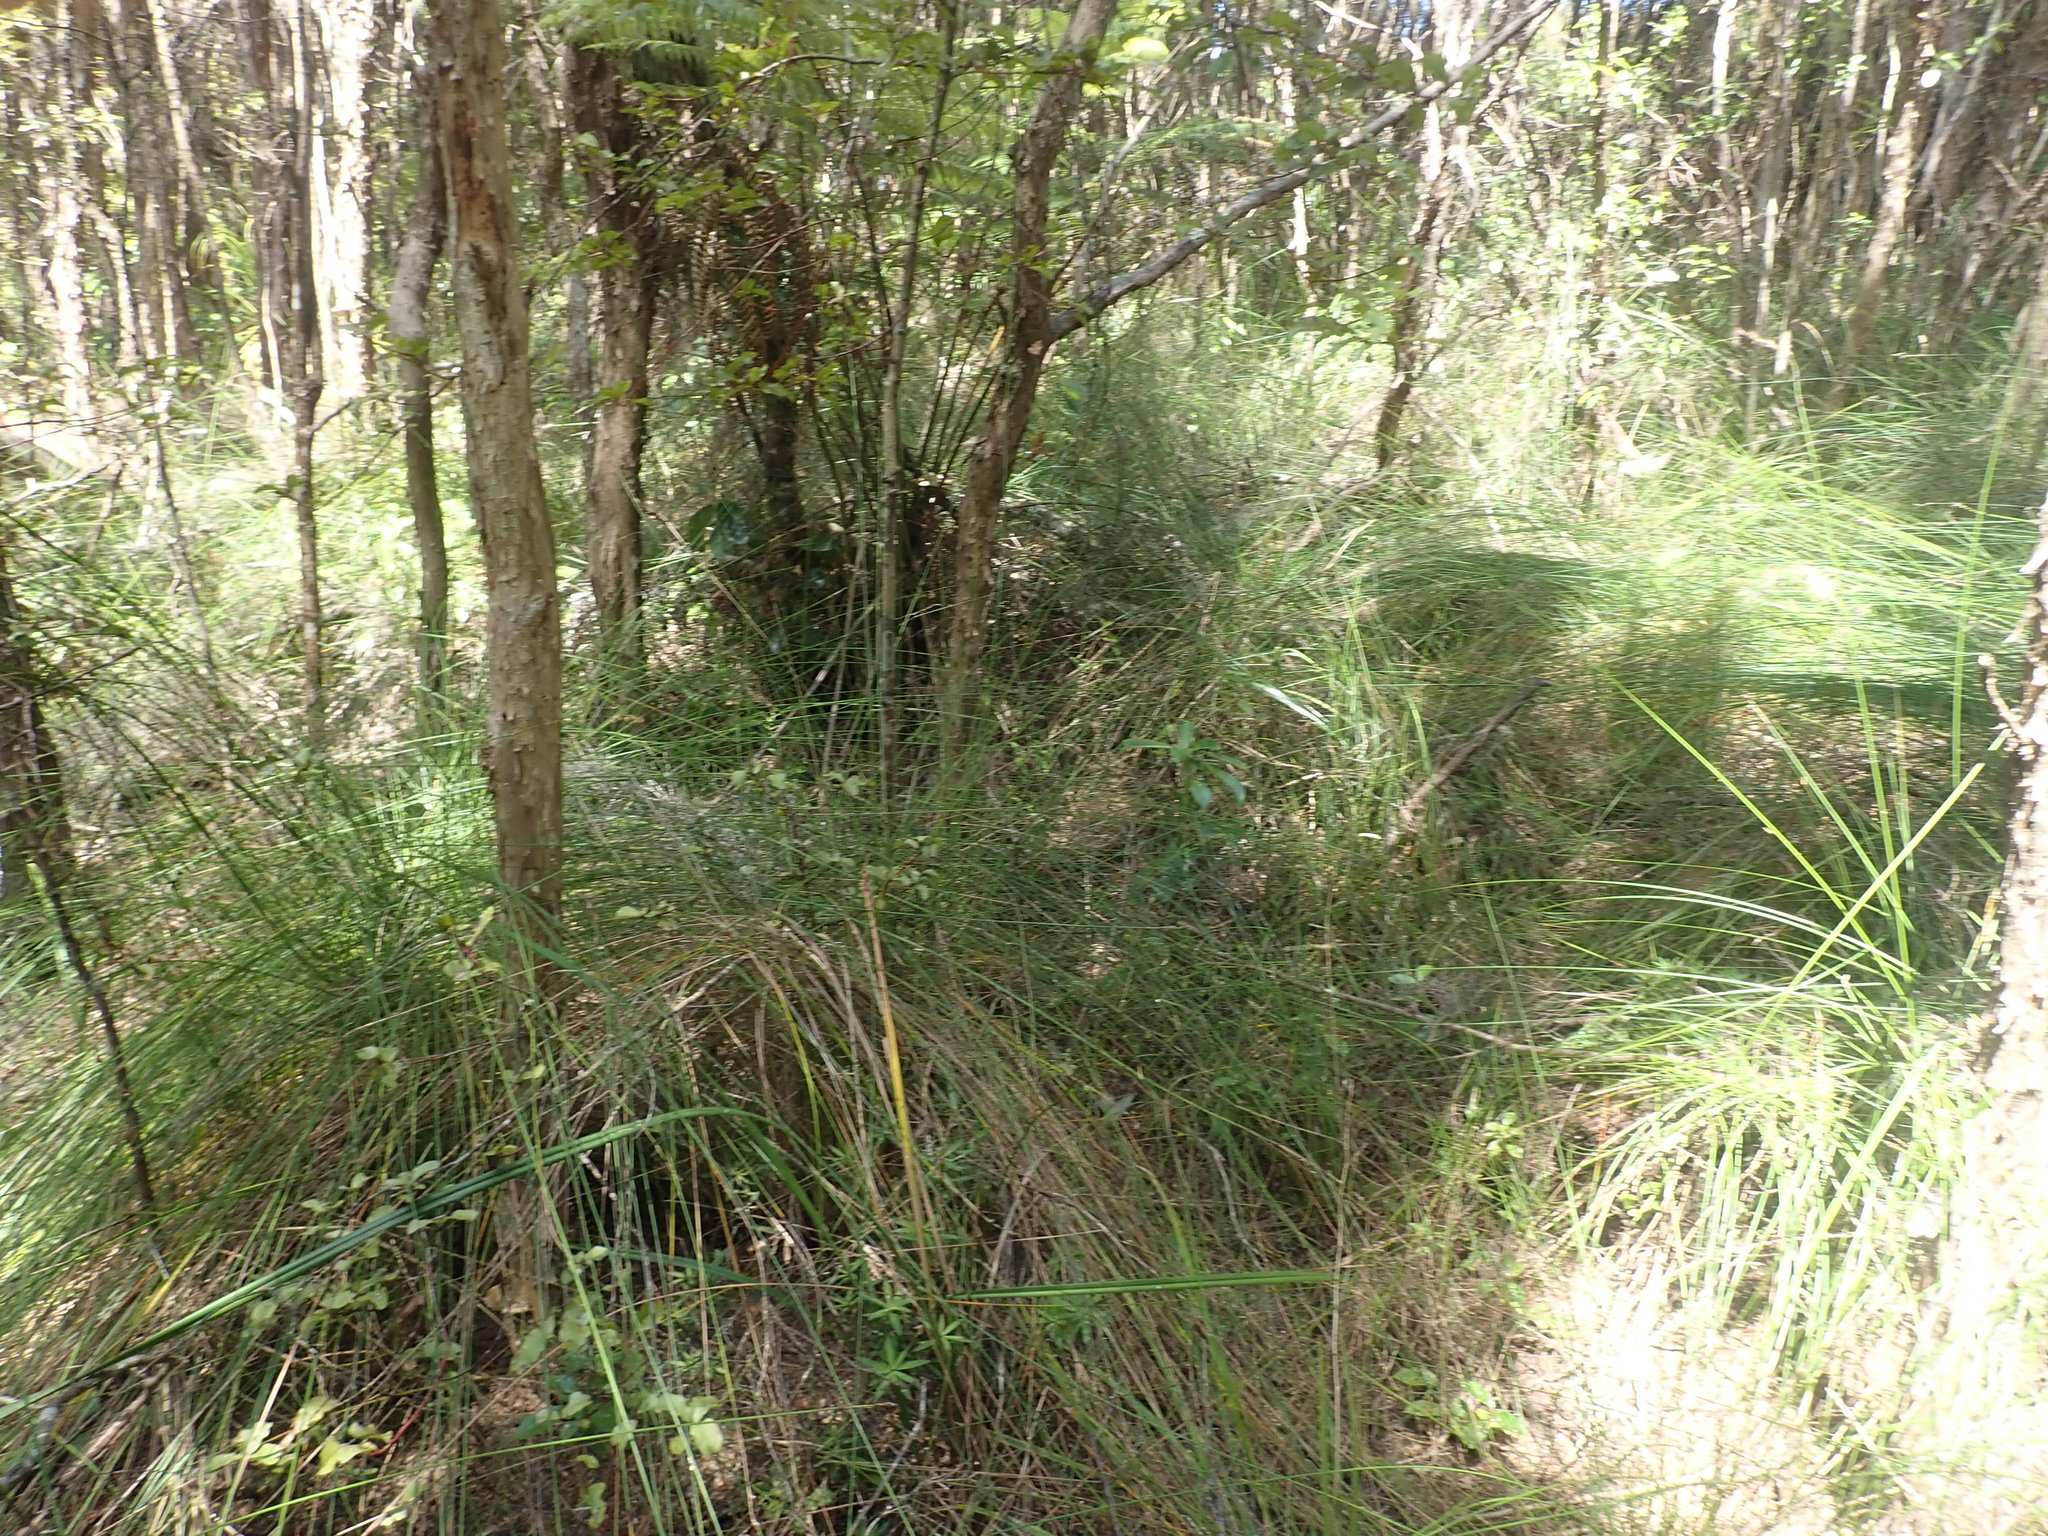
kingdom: Plantae
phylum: Tracheophyta
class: Magnoliopsida
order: Ericales
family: Ericaceae
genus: Leucopogon
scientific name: Leucopogon fasciculatus
